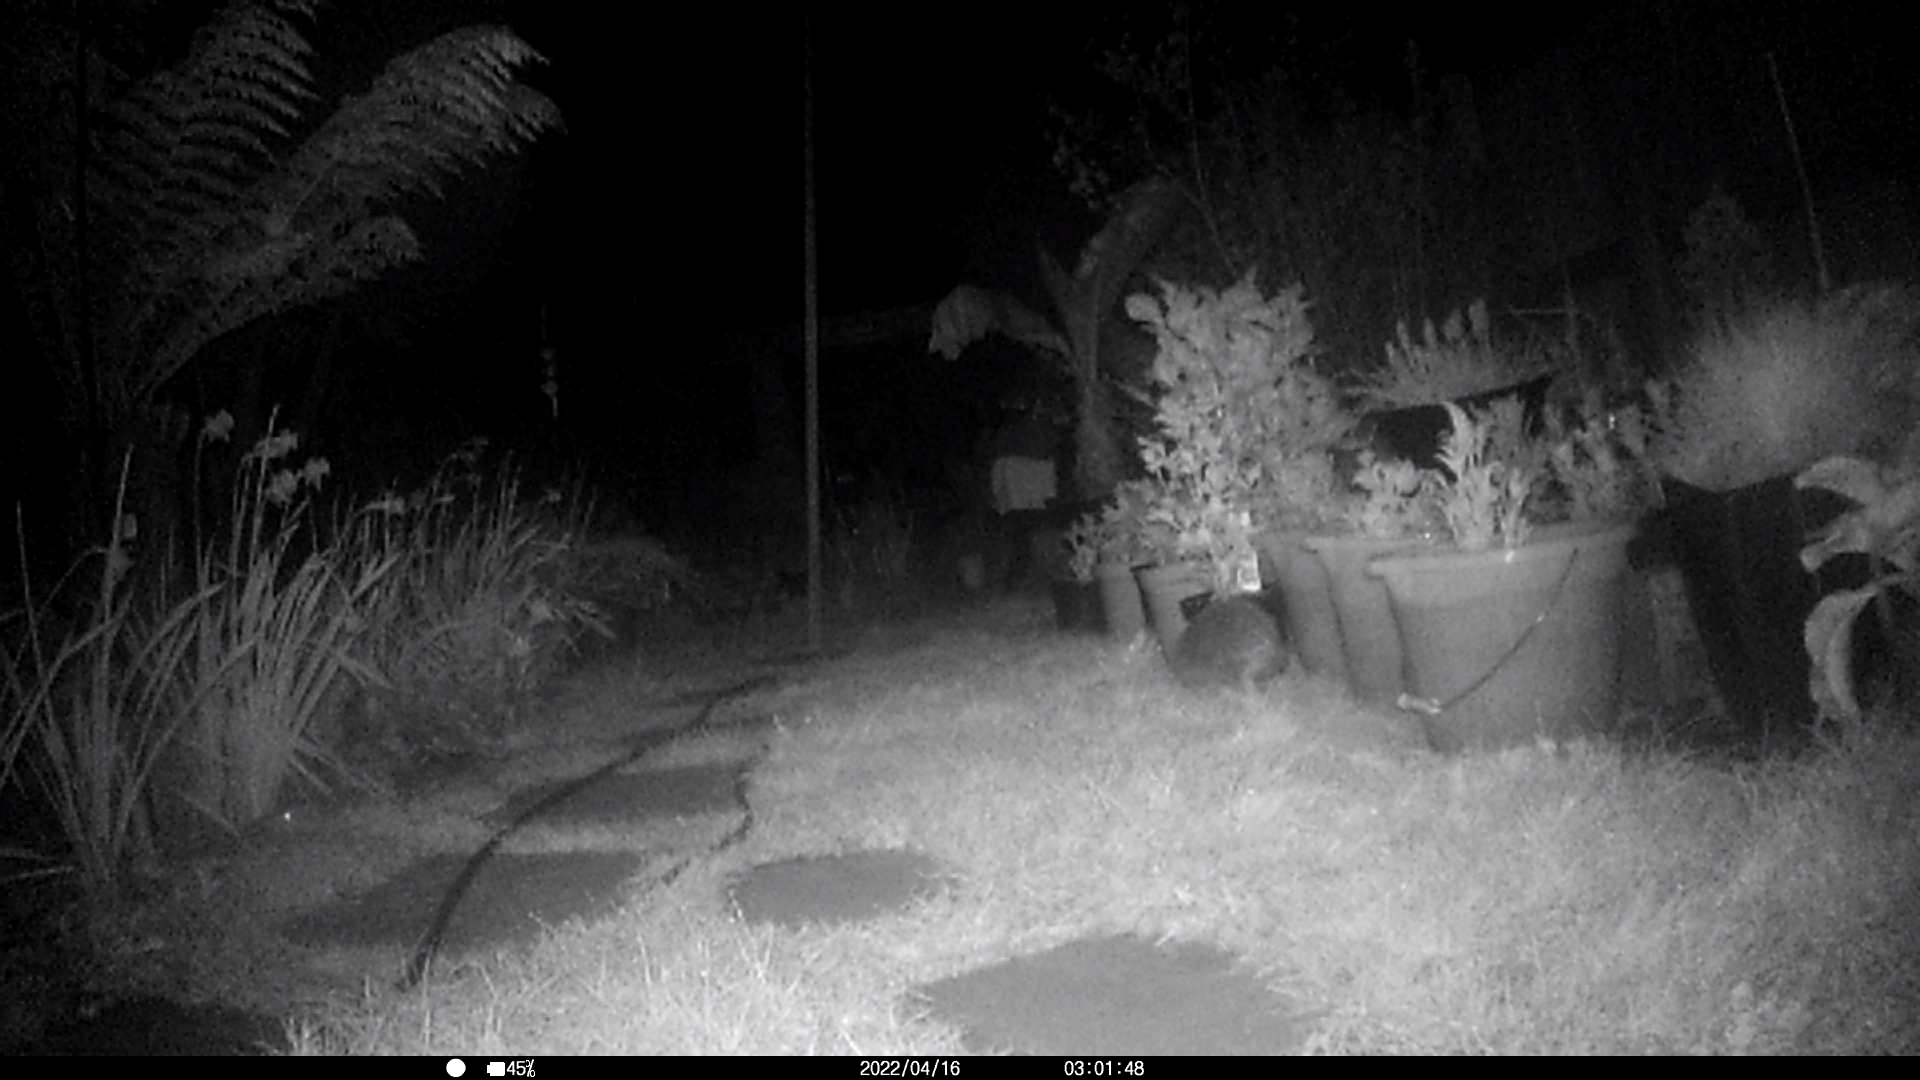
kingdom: Animalia
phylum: Chordata
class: Mammalia
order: Erinaceomorpha
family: Erinaceidae
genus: Erinaceus
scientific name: Erinaceus europaeus
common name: West european hedgehog
